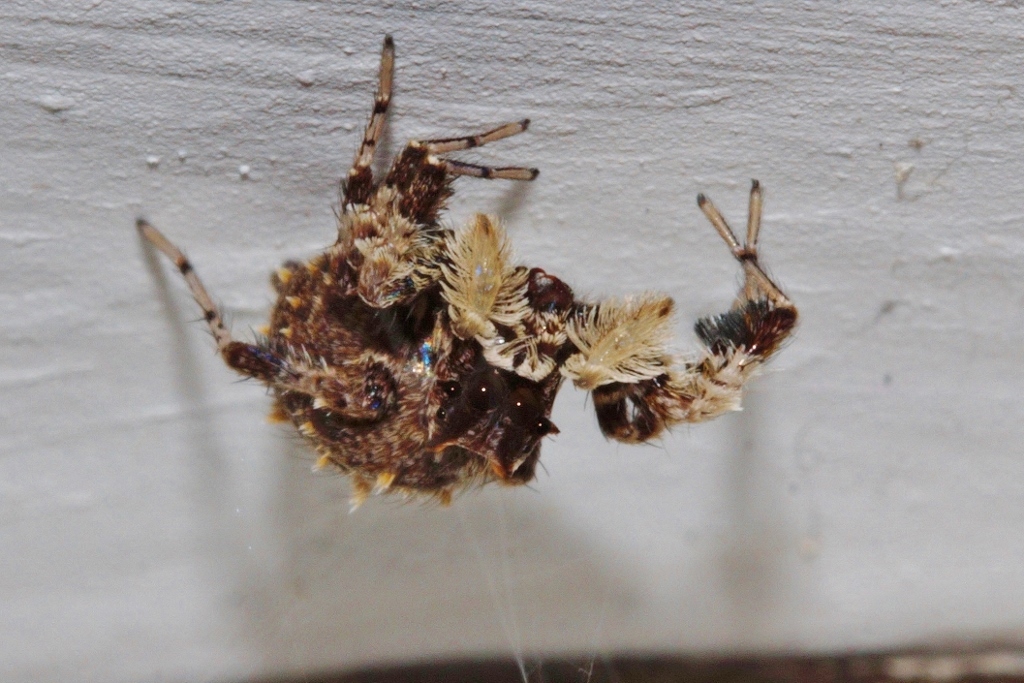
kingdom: Animalia
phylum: Arthropoda
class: Arachnida
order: Araneae
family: Salticidae
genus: Portia
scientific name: Portia schultzi
